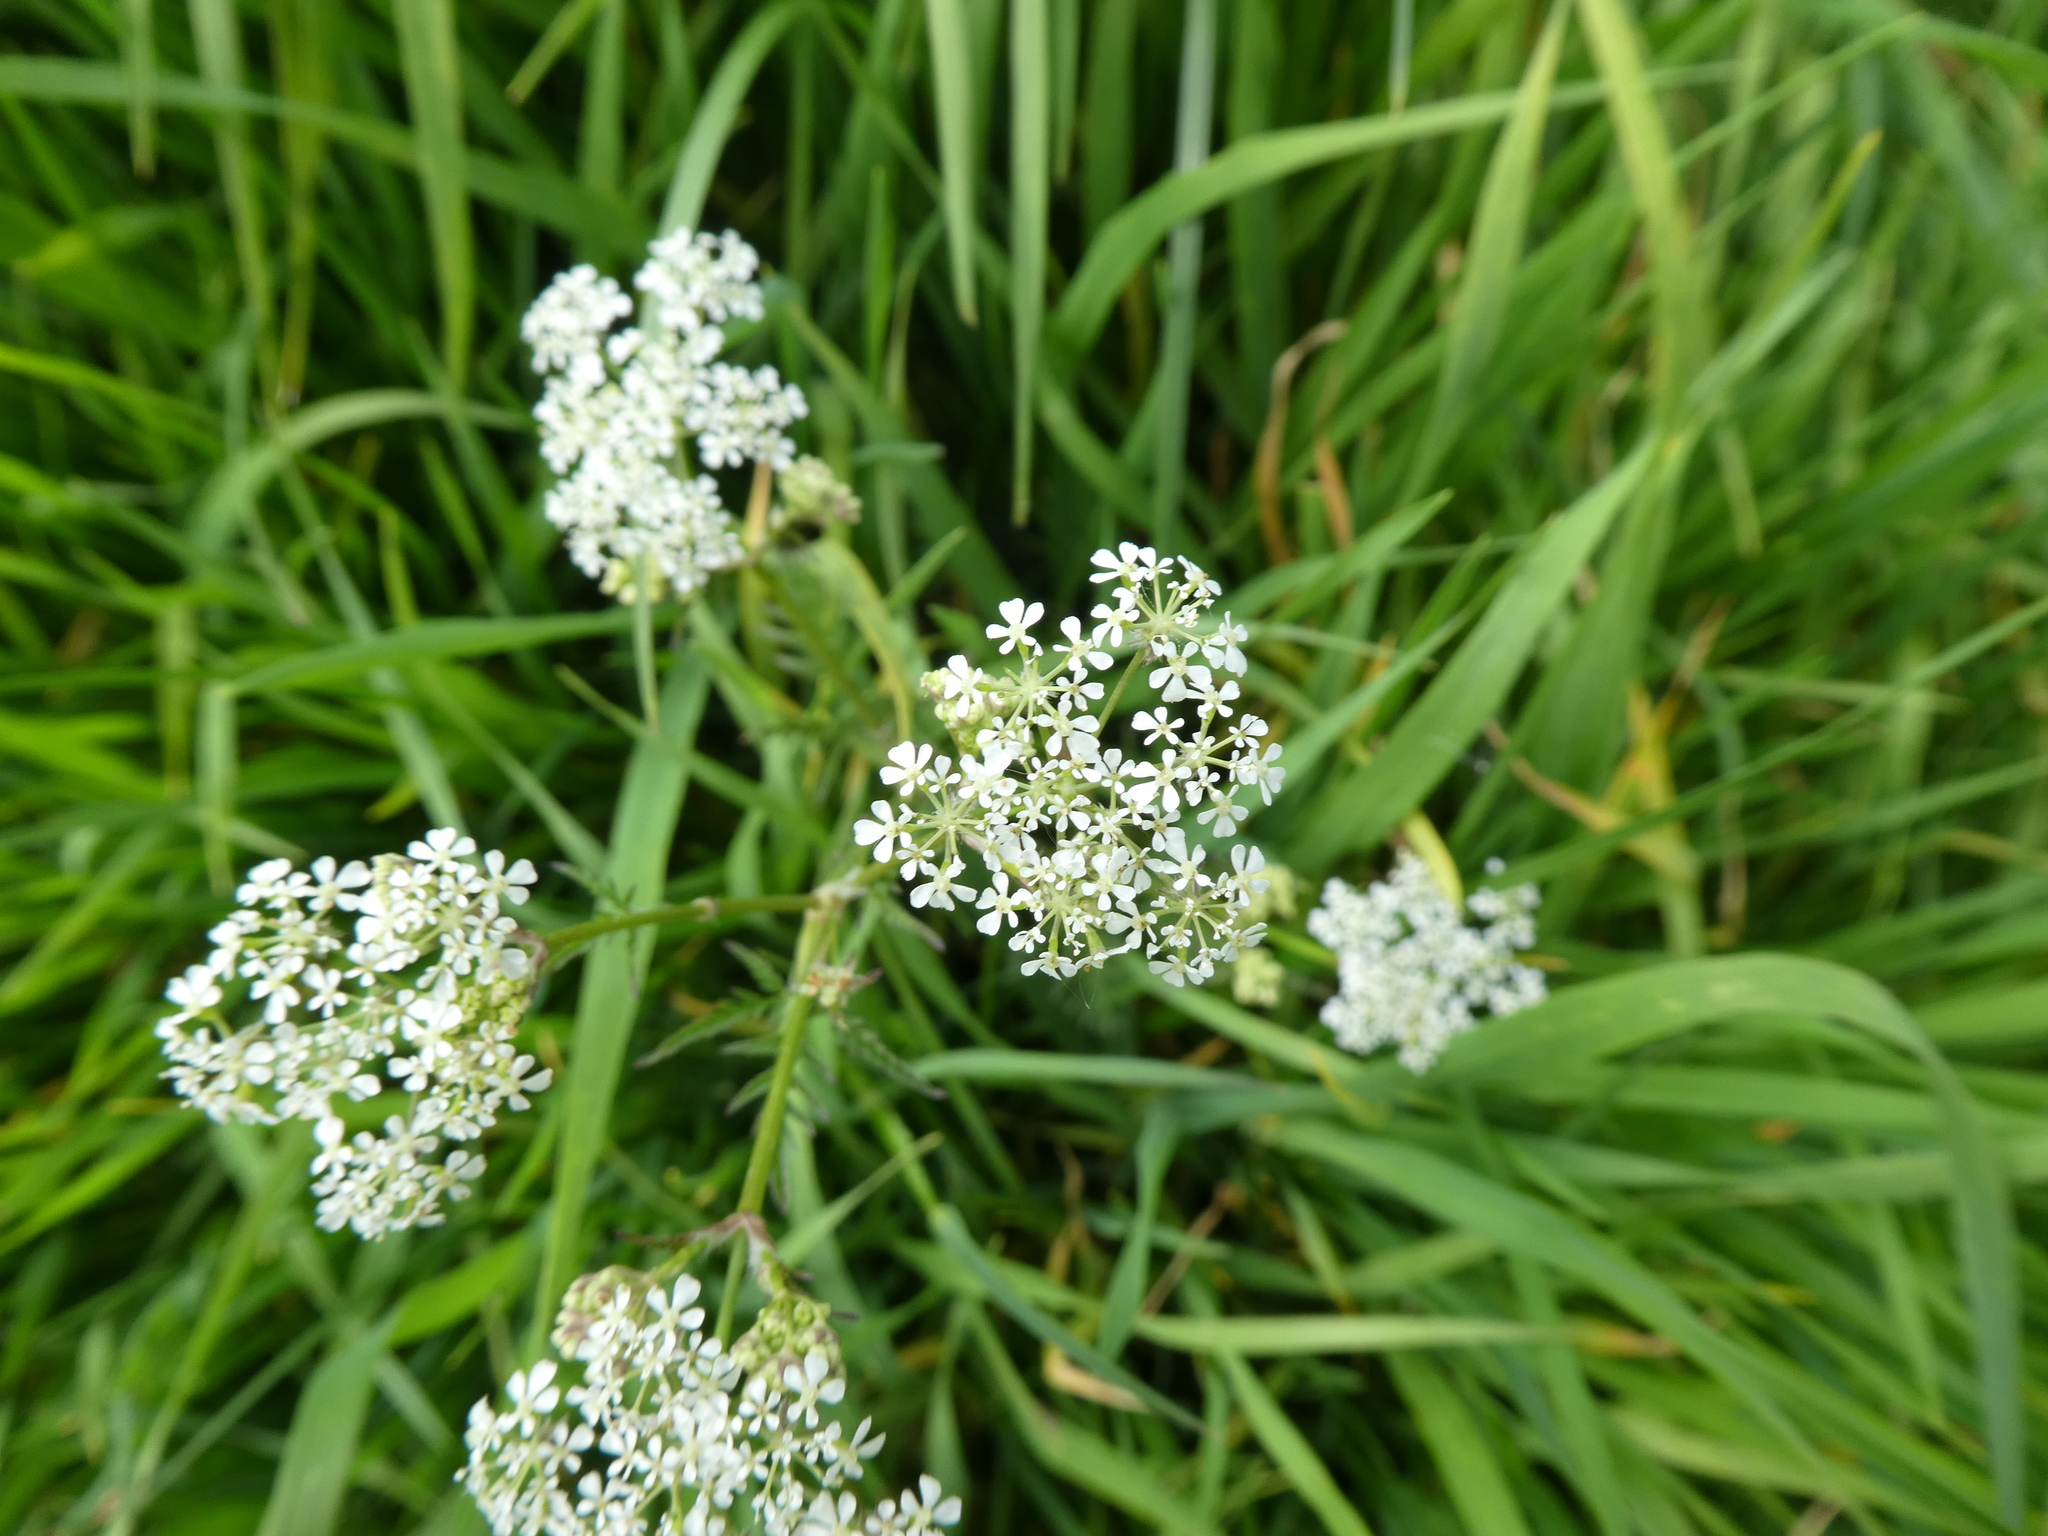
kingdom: Plantae
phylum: Tracheophyta
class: Magnoliopsida
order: Apiales
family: Apiaceae
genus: Anthriscus
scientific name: Anthriscus sylvestris
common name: Cow parsley
